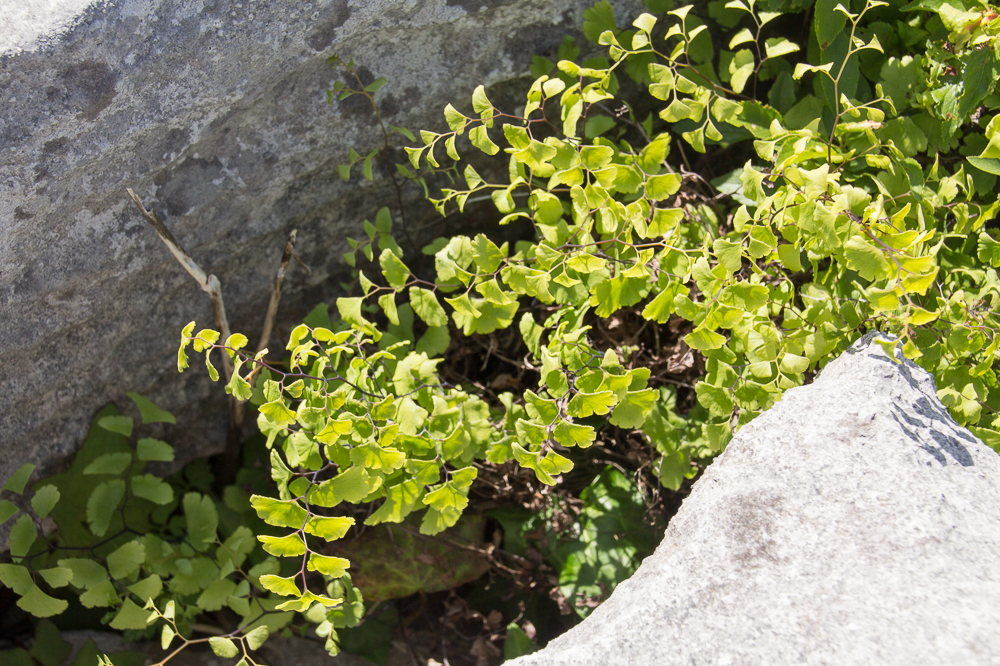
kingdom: Plantae
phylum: Tracheophyta
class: Polypodiopsida
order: Polypodiales
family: Pteridaceae
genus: Adiantum
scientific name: Adiantum capillus-veneris
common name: Maidenhair fern
